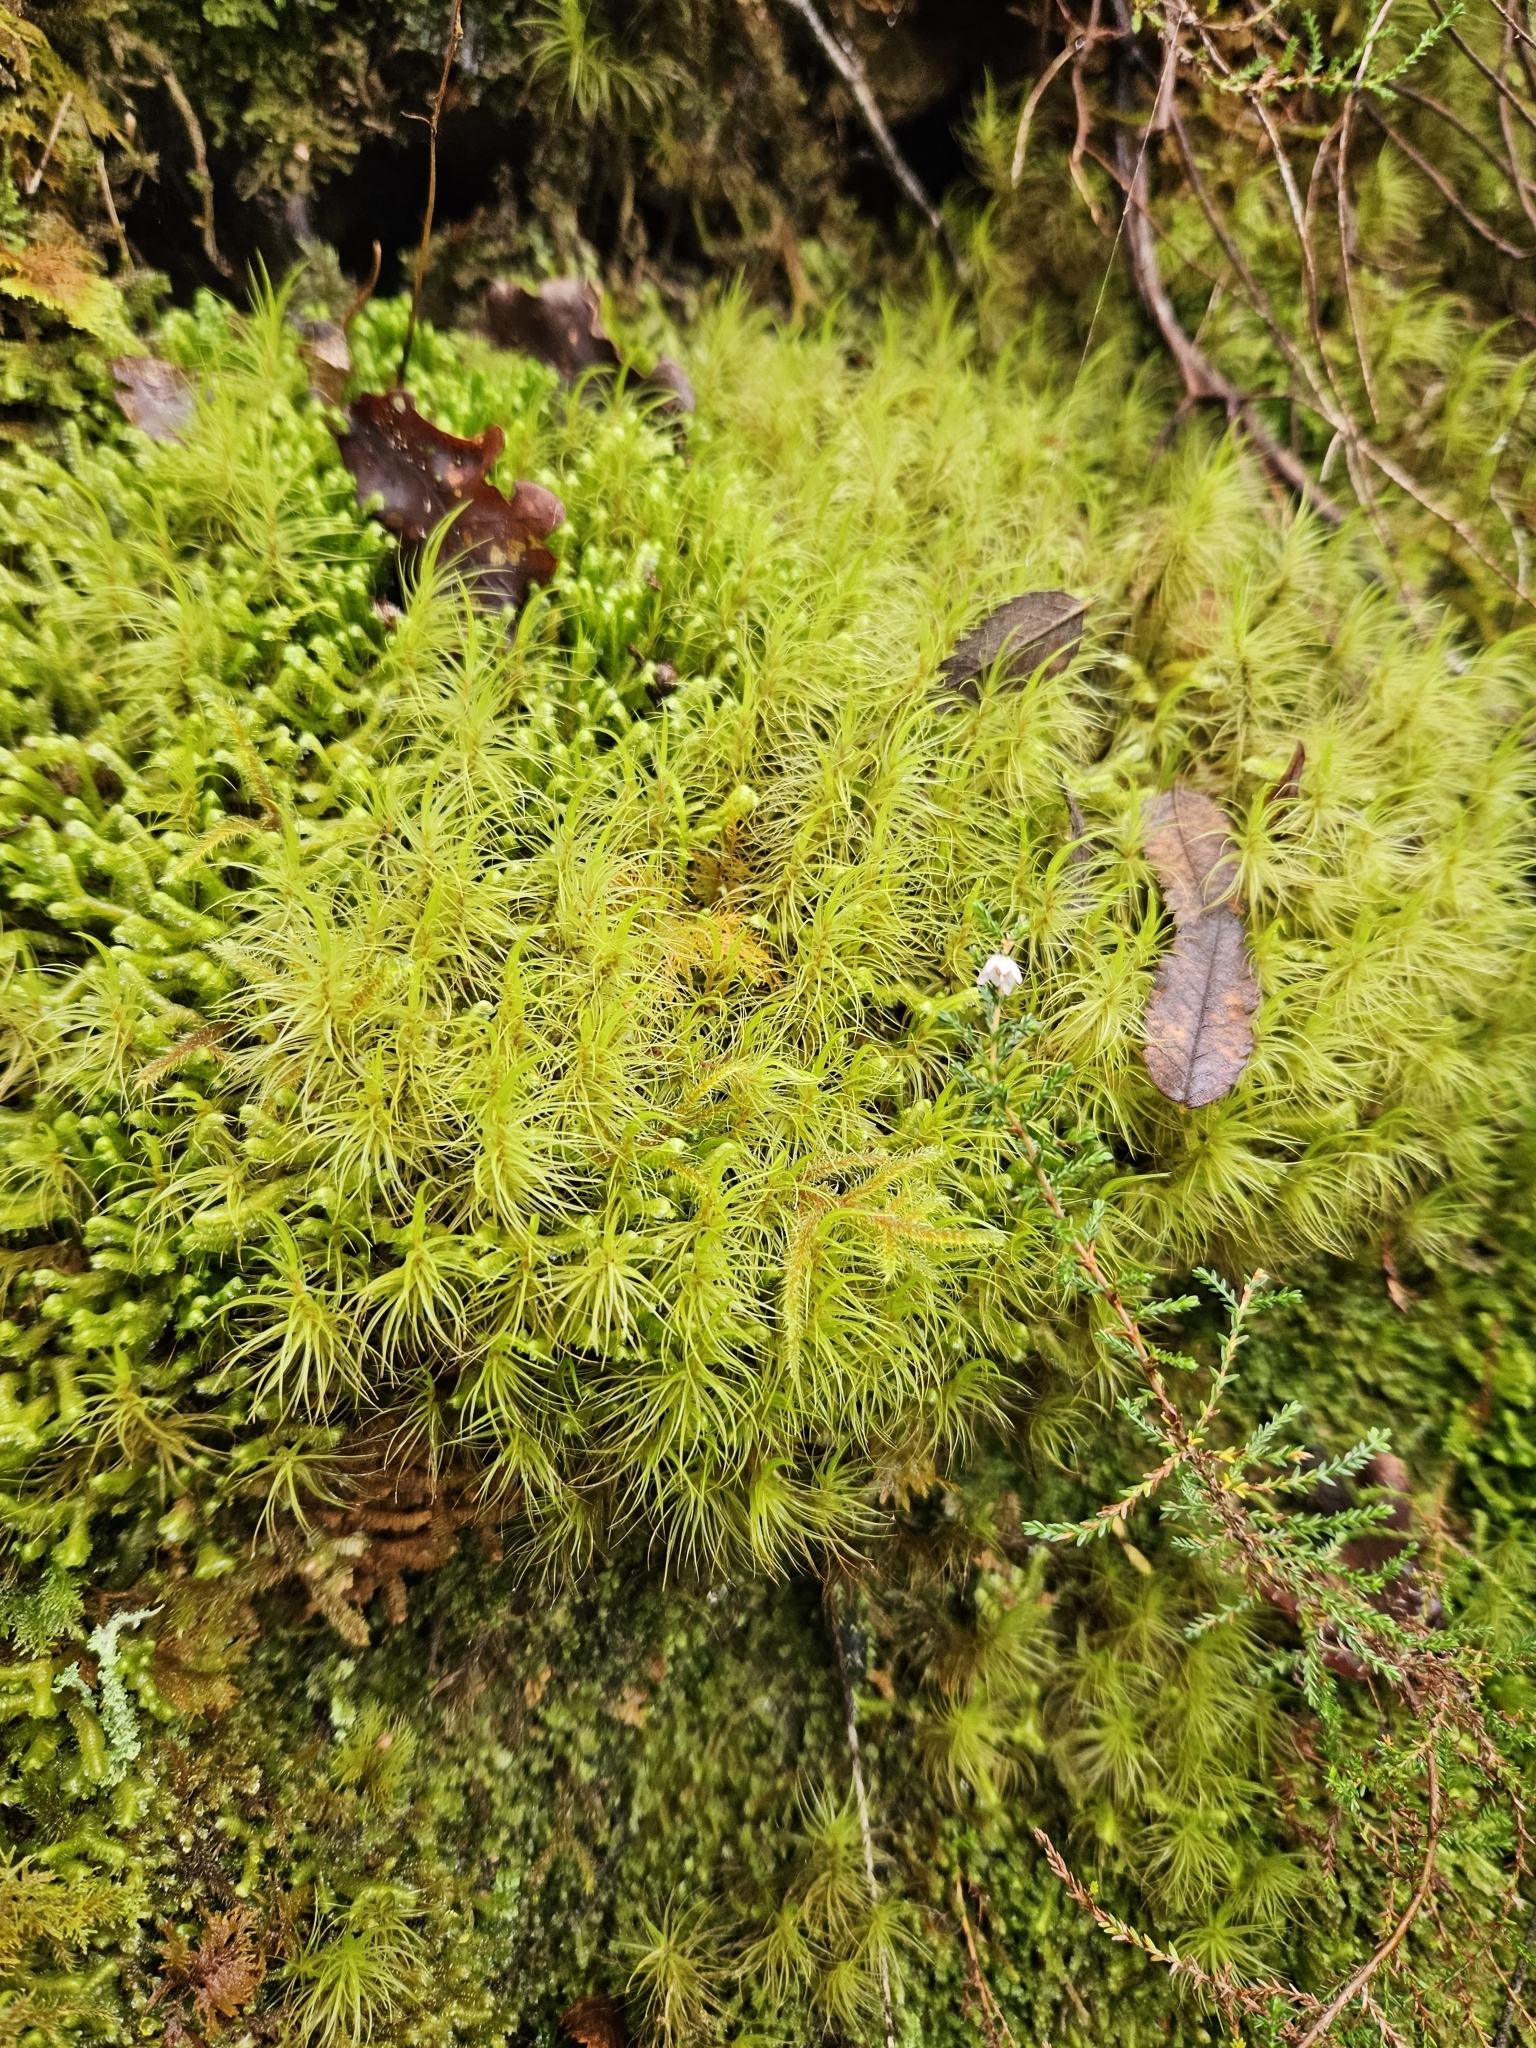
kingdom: Plantae
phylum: Bryophyta
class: Bryopsida
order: Dicranales
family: Dicranaceae
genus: Dicranum
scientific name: Dicranum majus
